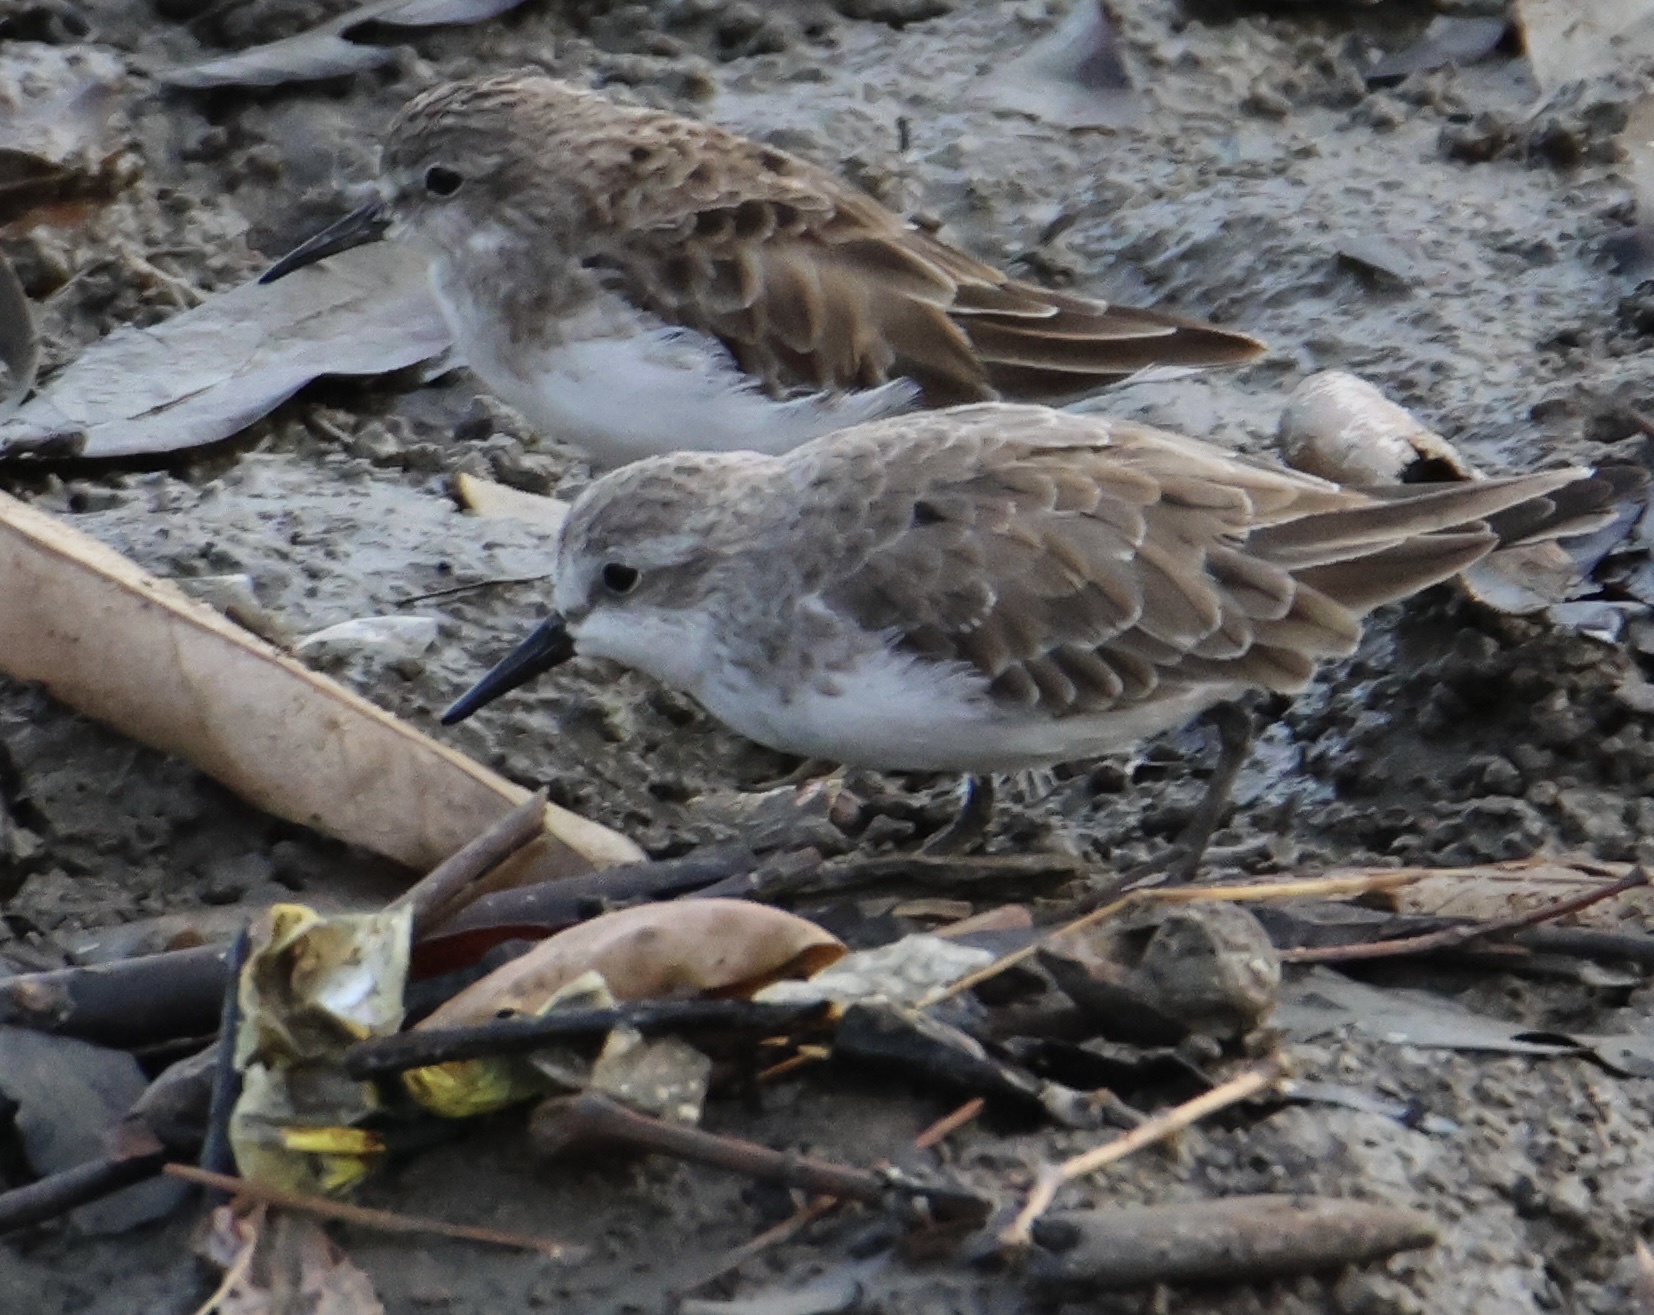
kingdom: Animalia
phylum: Chordata
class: Aves
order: Charadriiformes
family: Scolopacidae
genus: Calidris
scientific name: Calidris pusilla
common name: Semipalmated sandpiper
